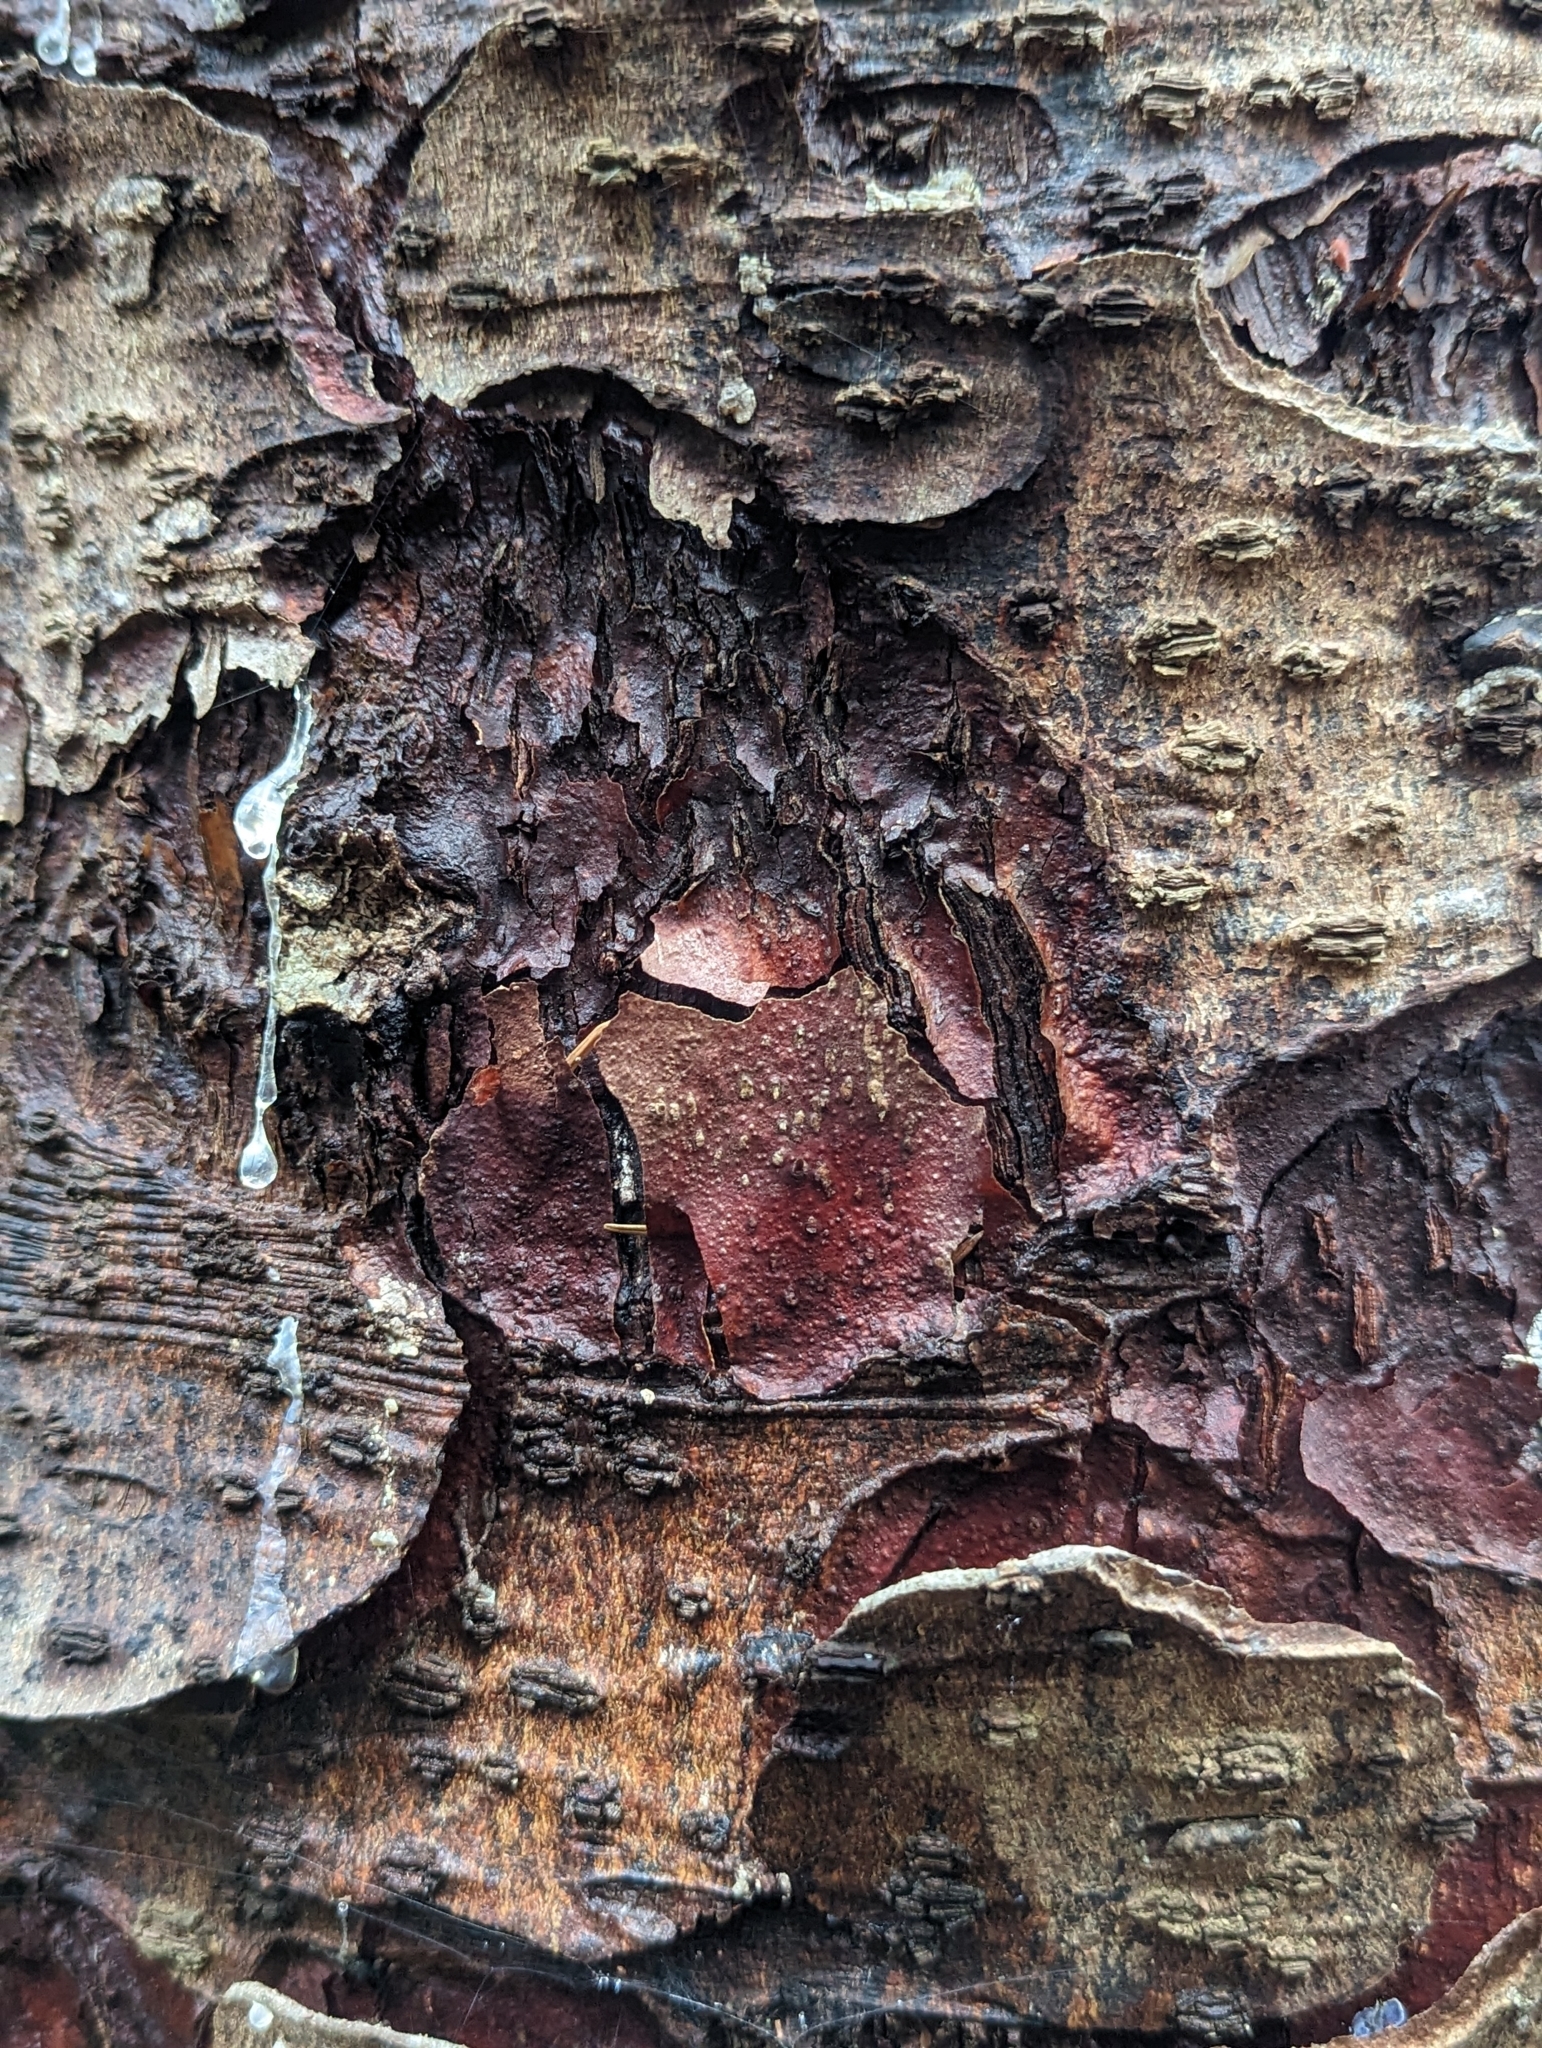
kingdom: Plantae
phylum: Tracheophyta
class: Pinopsida
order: Pinales
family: Pinaceae
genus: Picea
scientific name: Picea sitchensis
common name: Sitka spruce
